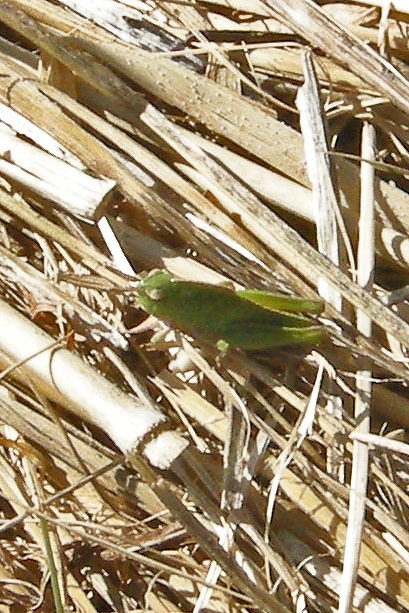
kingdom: Animalia
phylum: Arthropoda
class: Insecta
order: Orthoptera
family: Acrididae
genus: Chortophaga
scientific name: Chortophaga viridifasciata
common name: Green-striped grasshopper
